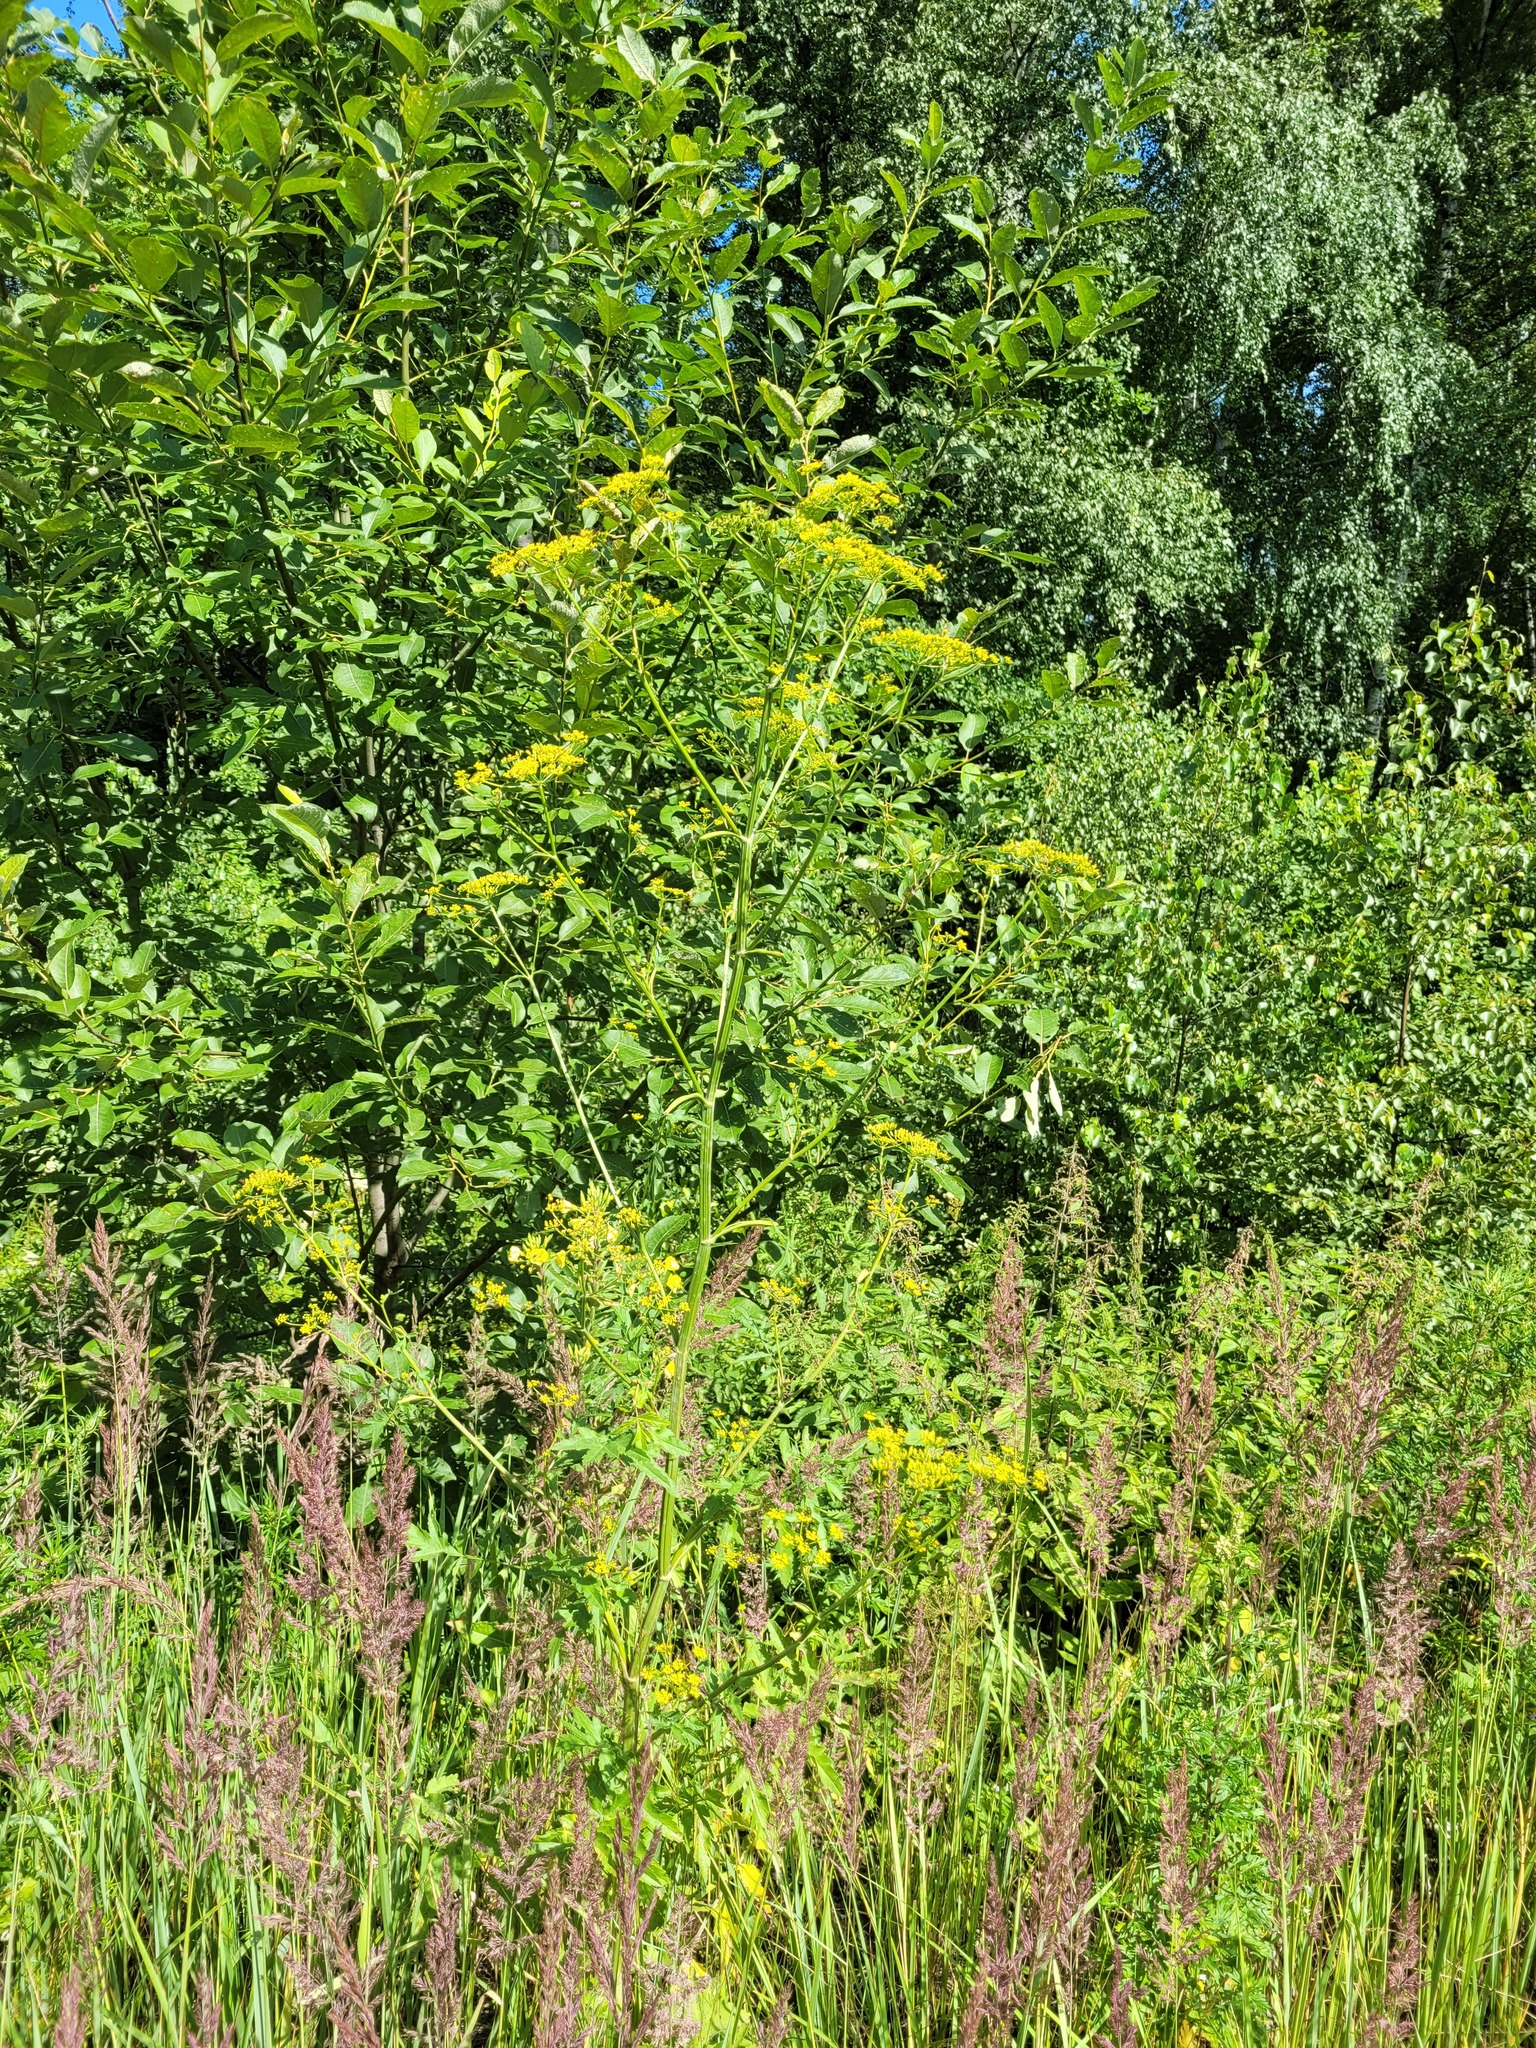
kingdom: Plantae
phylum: Tracheophyta
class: Magnoliopsida
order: Apiales
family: Apiaceae
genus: Pastinaca
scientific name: Pastinaca sativa
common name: Wild parsnip
